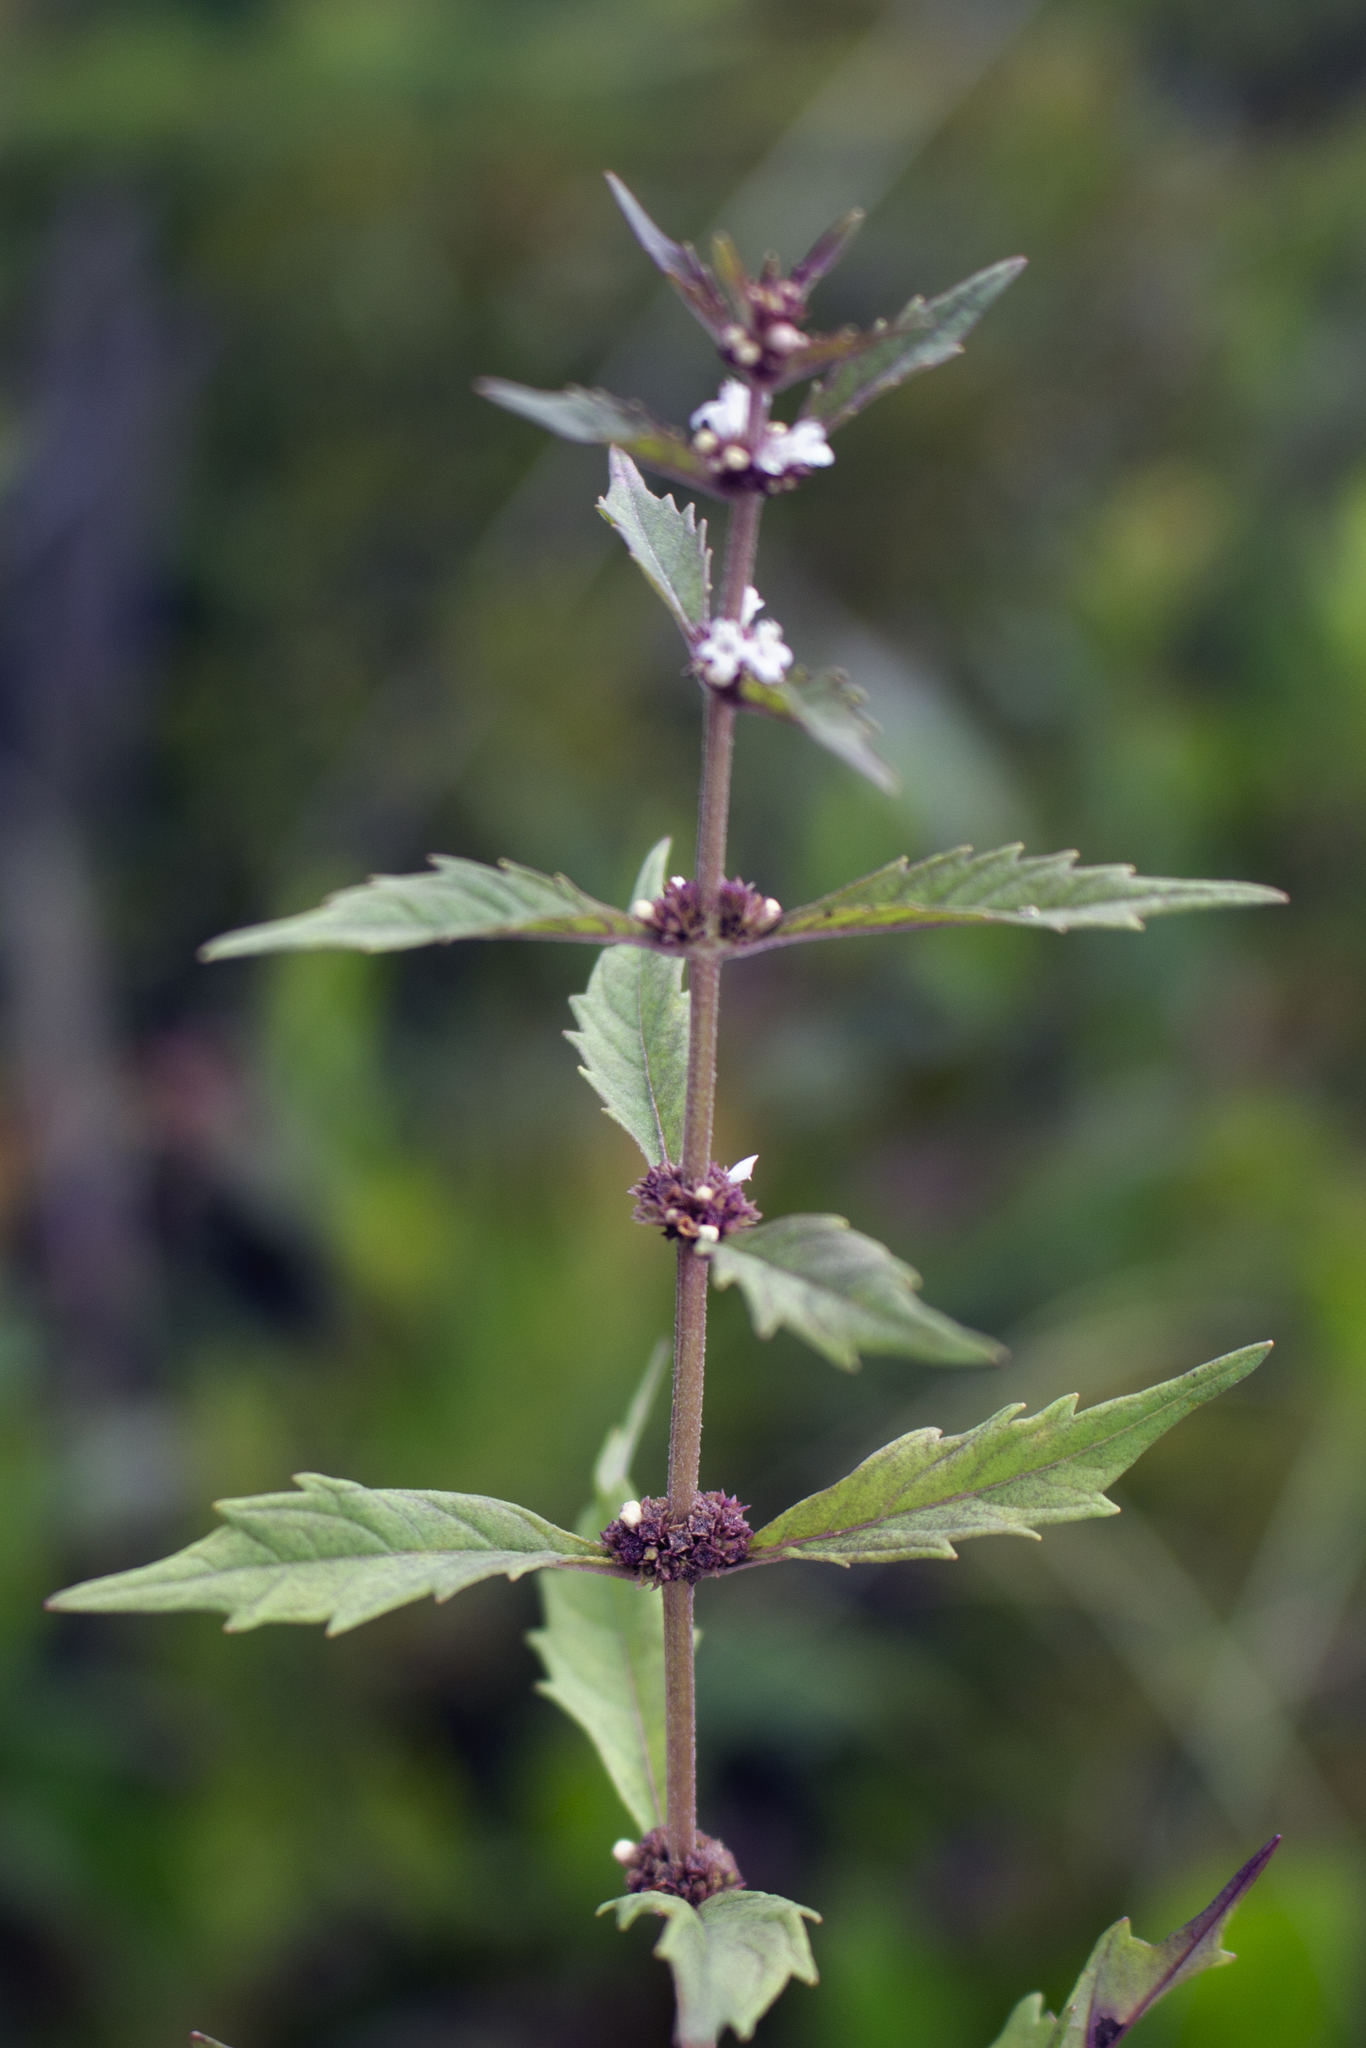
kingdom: Plantae
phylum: Tracheophyta
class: Magnoliopsida
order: Lamiales
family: Lamiaceae
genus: Lycopus
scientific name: Lycopus uniflorus
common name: Northern bugleweed
